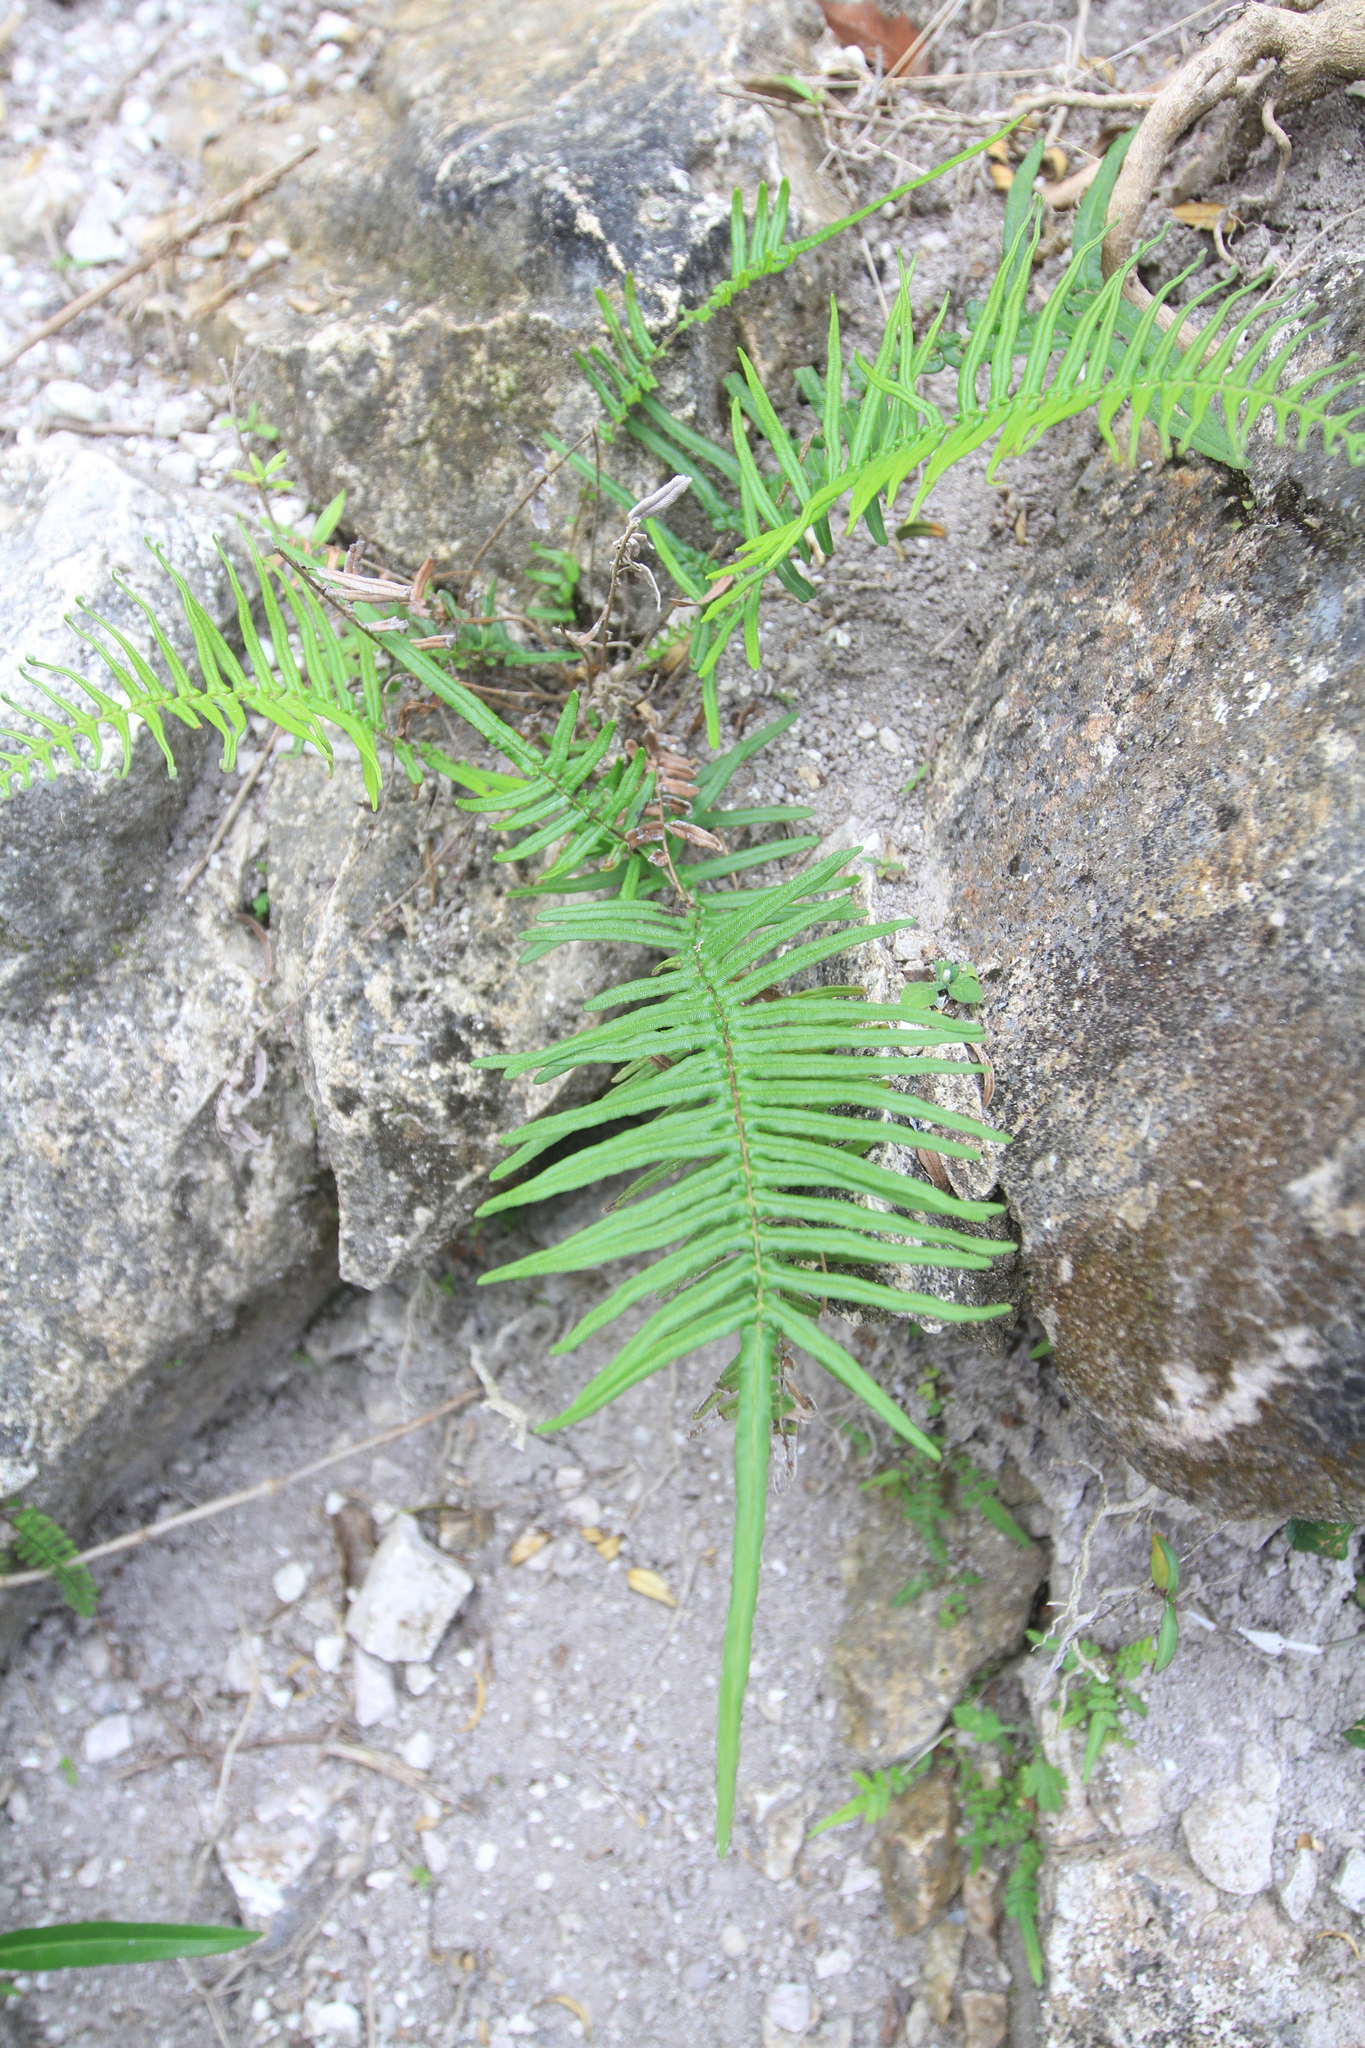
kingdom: Plantae
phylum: Tracheophyta
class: Polypodiopsida
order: Polypodiales
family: Pteridaceae
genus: Pteris
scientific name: Pteris vittata
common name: Ladder brake
